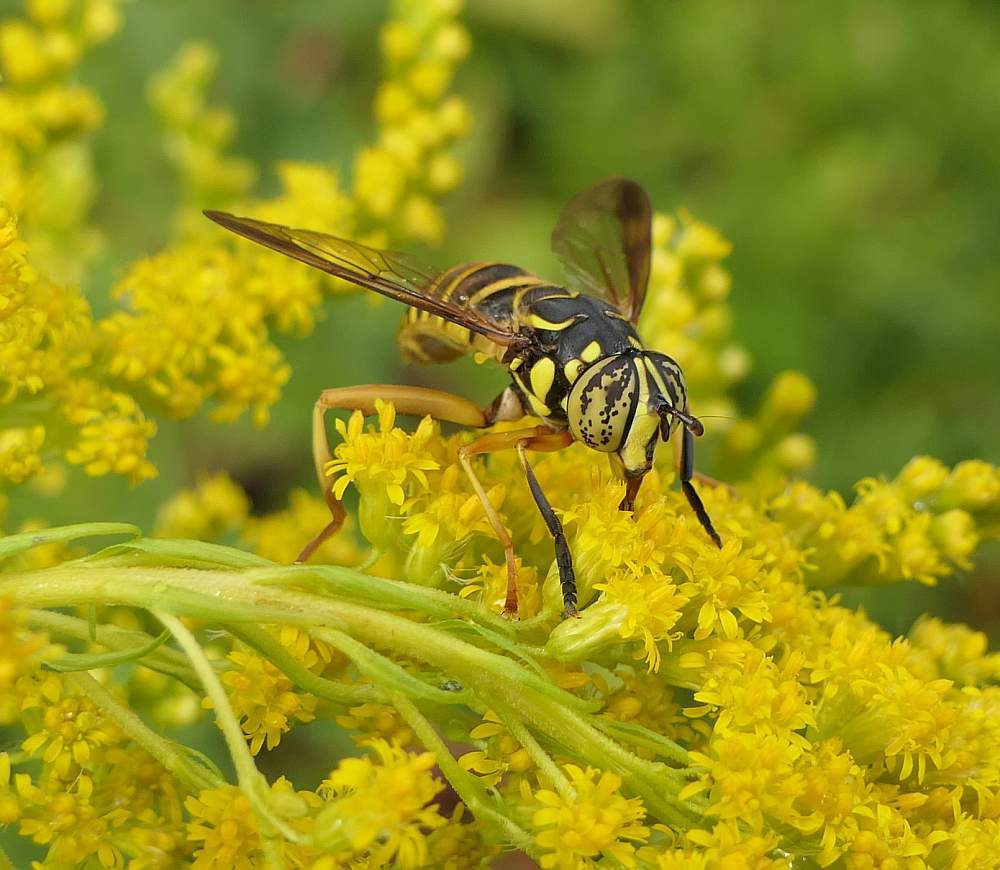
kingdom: Animalia
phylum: Arthropoda
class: Insecta
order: Diptera
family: Syrphidae
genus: Spilomyia
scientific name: Spilomyia longicornis
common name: Eastern hornet fly
